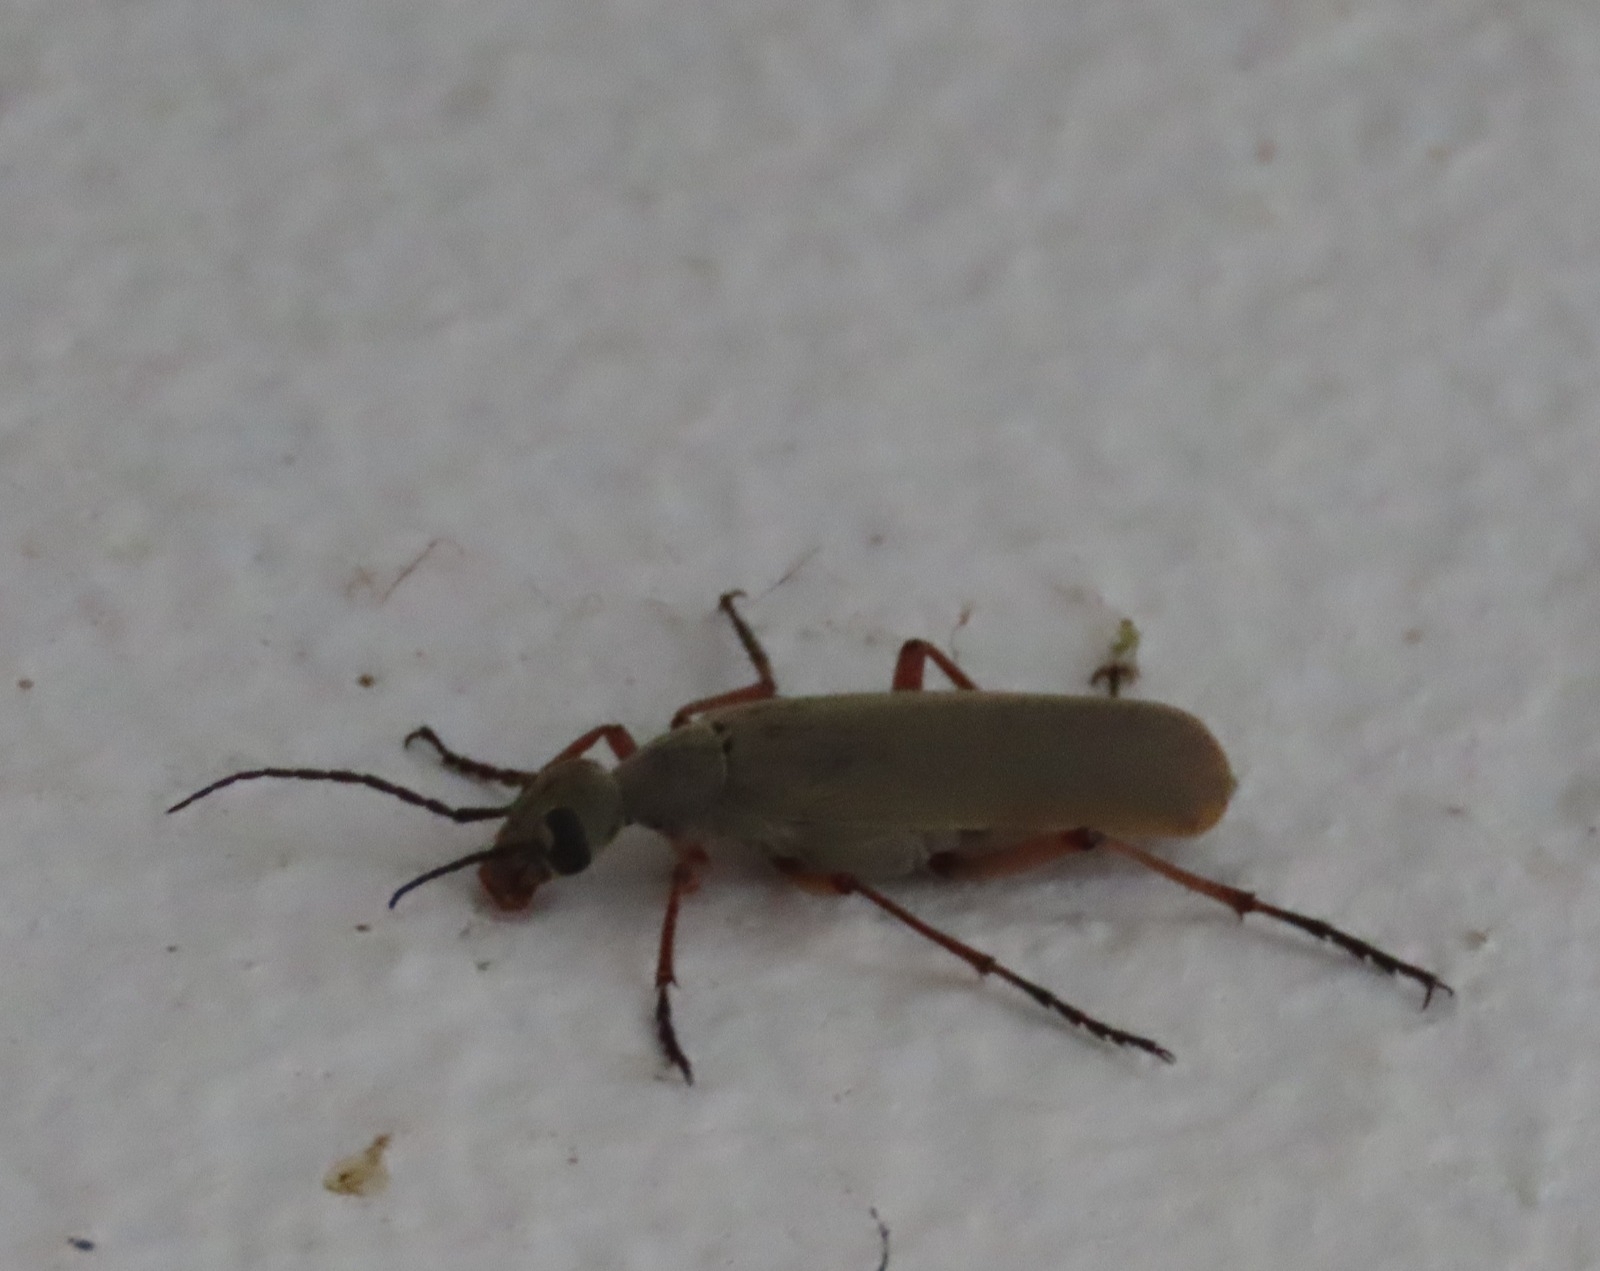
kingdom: Animalia
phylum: Arthropoda
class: Insecta
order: Coleoptera
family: Meloidae
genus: Epicauta
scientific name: Epicauta isthmica
